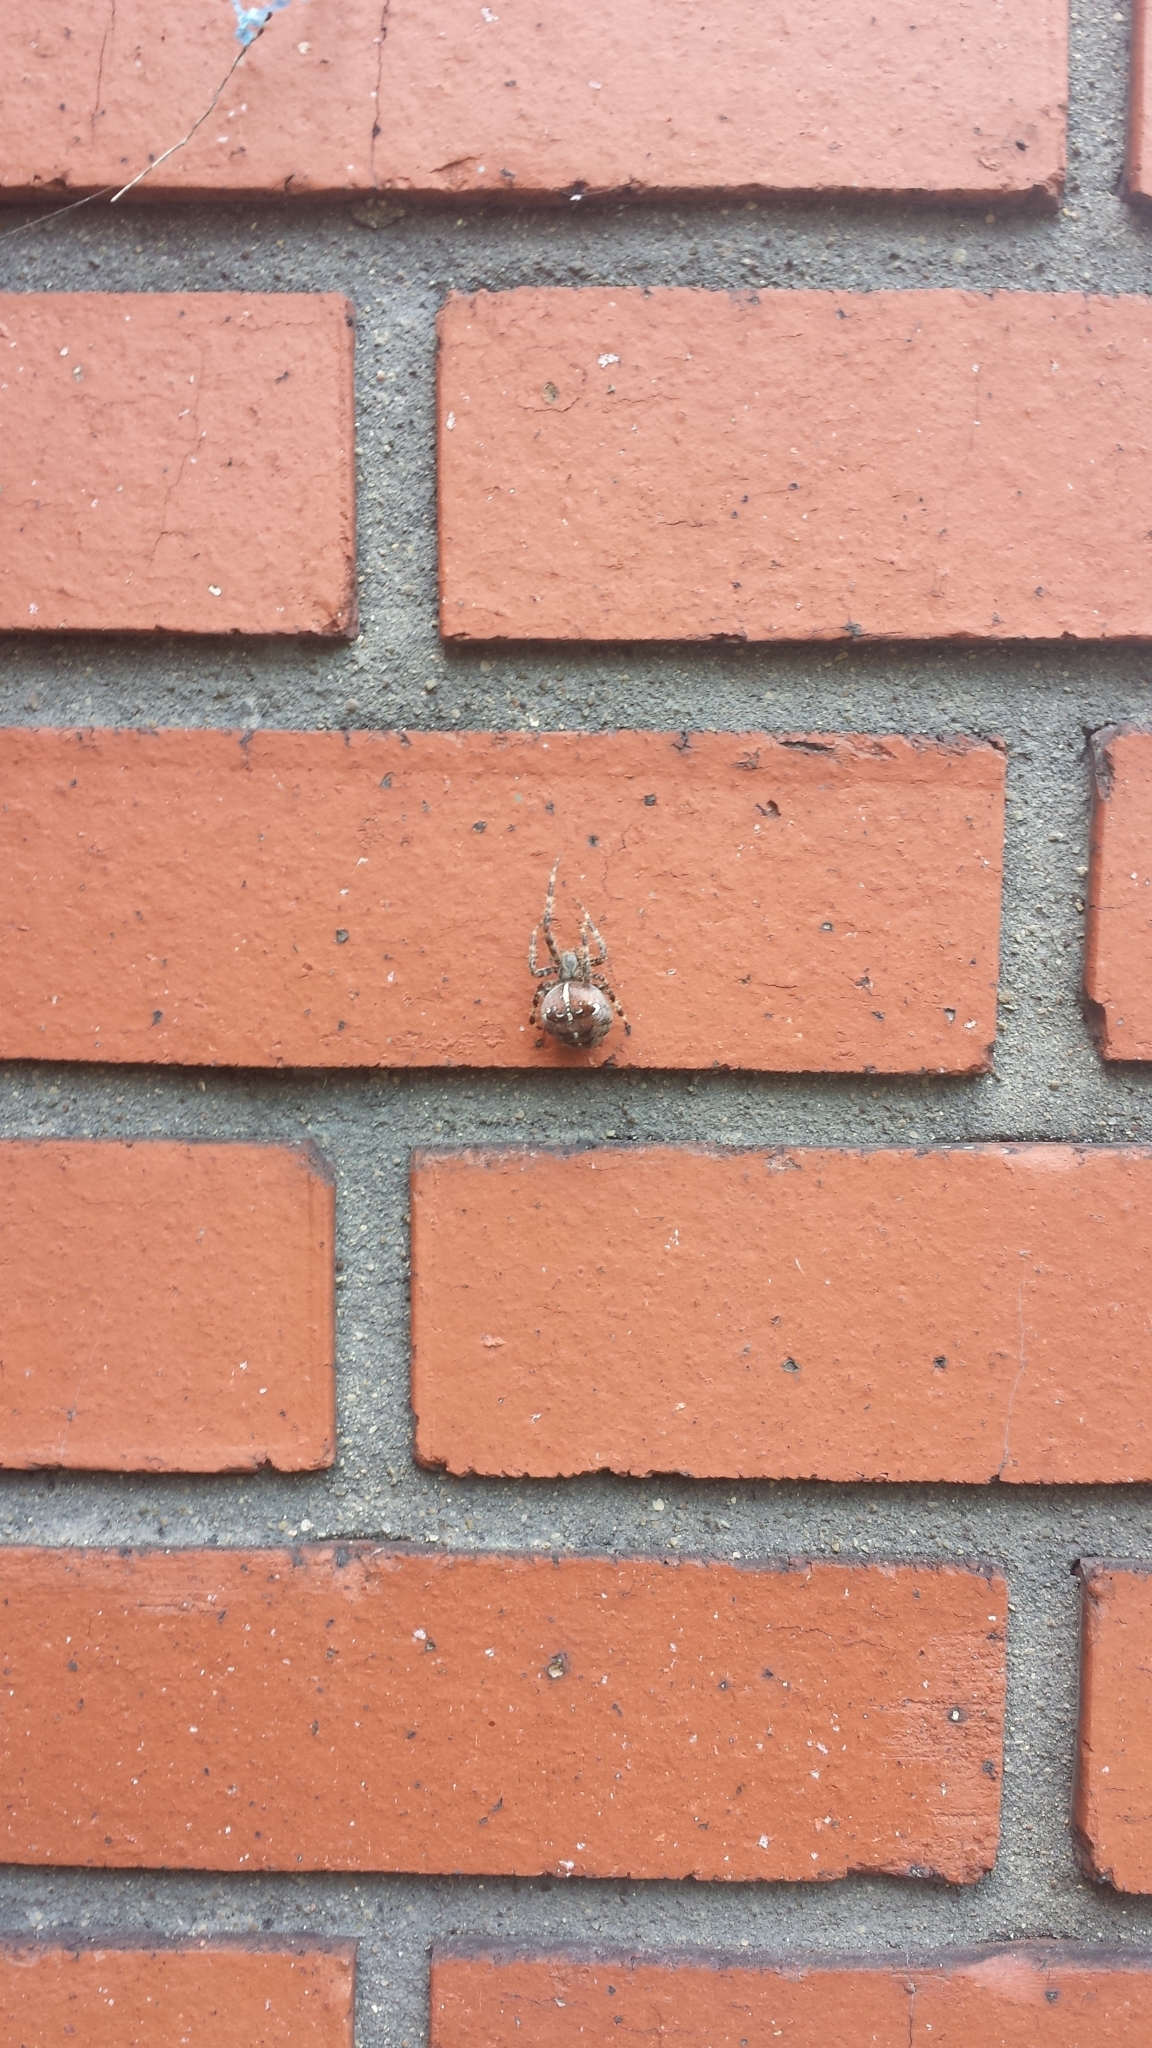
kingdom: Animalia
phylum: Arthropoda
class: Arachnida
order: Araneae
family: Araneidae
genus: Araneus
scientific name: Araneus diadematus
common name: Cross orbweaver
